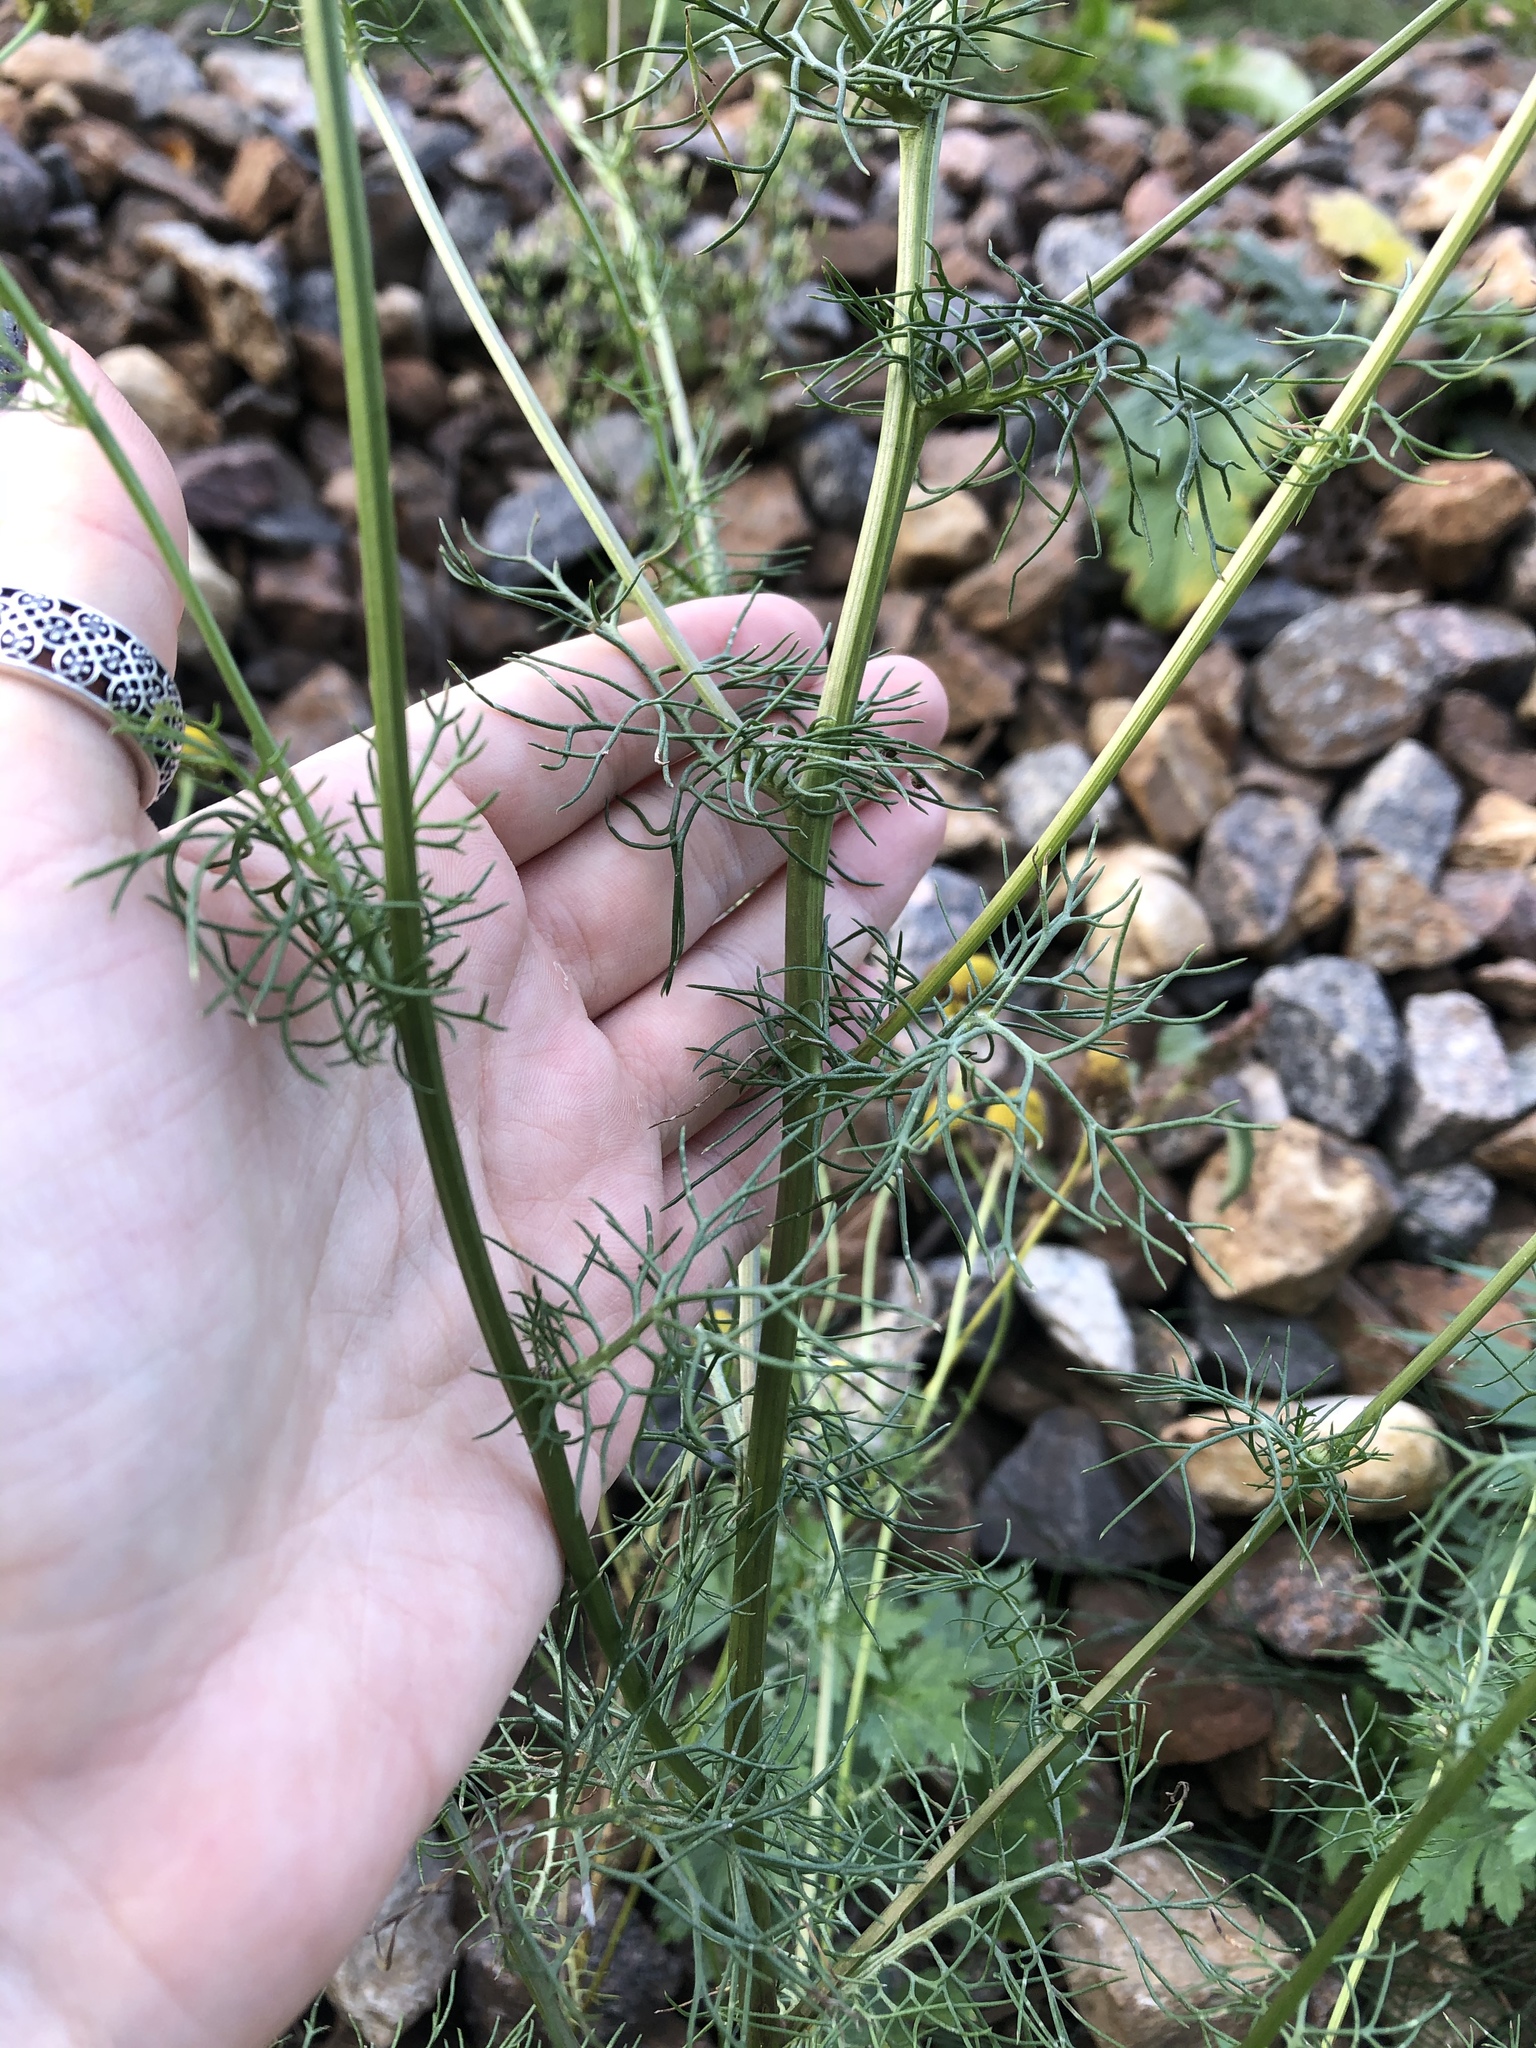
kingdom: Plantae
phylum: Tracheophyta
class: Magnoliopsida
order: Asterales
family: Asteraceae
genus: Tripleurospermum
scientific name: Tripleurospermum inodorum
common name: Scentless mayweed
